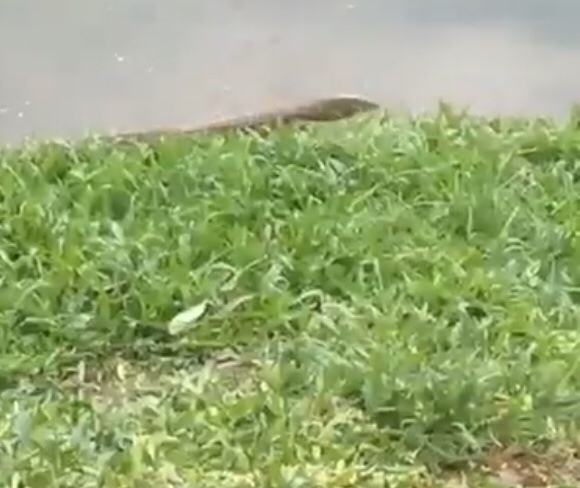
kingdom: Animalia
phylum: Chordata
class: Squamata
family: Varanidae
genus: Varanus
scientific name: Varanus salvator
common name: Common water monitor
